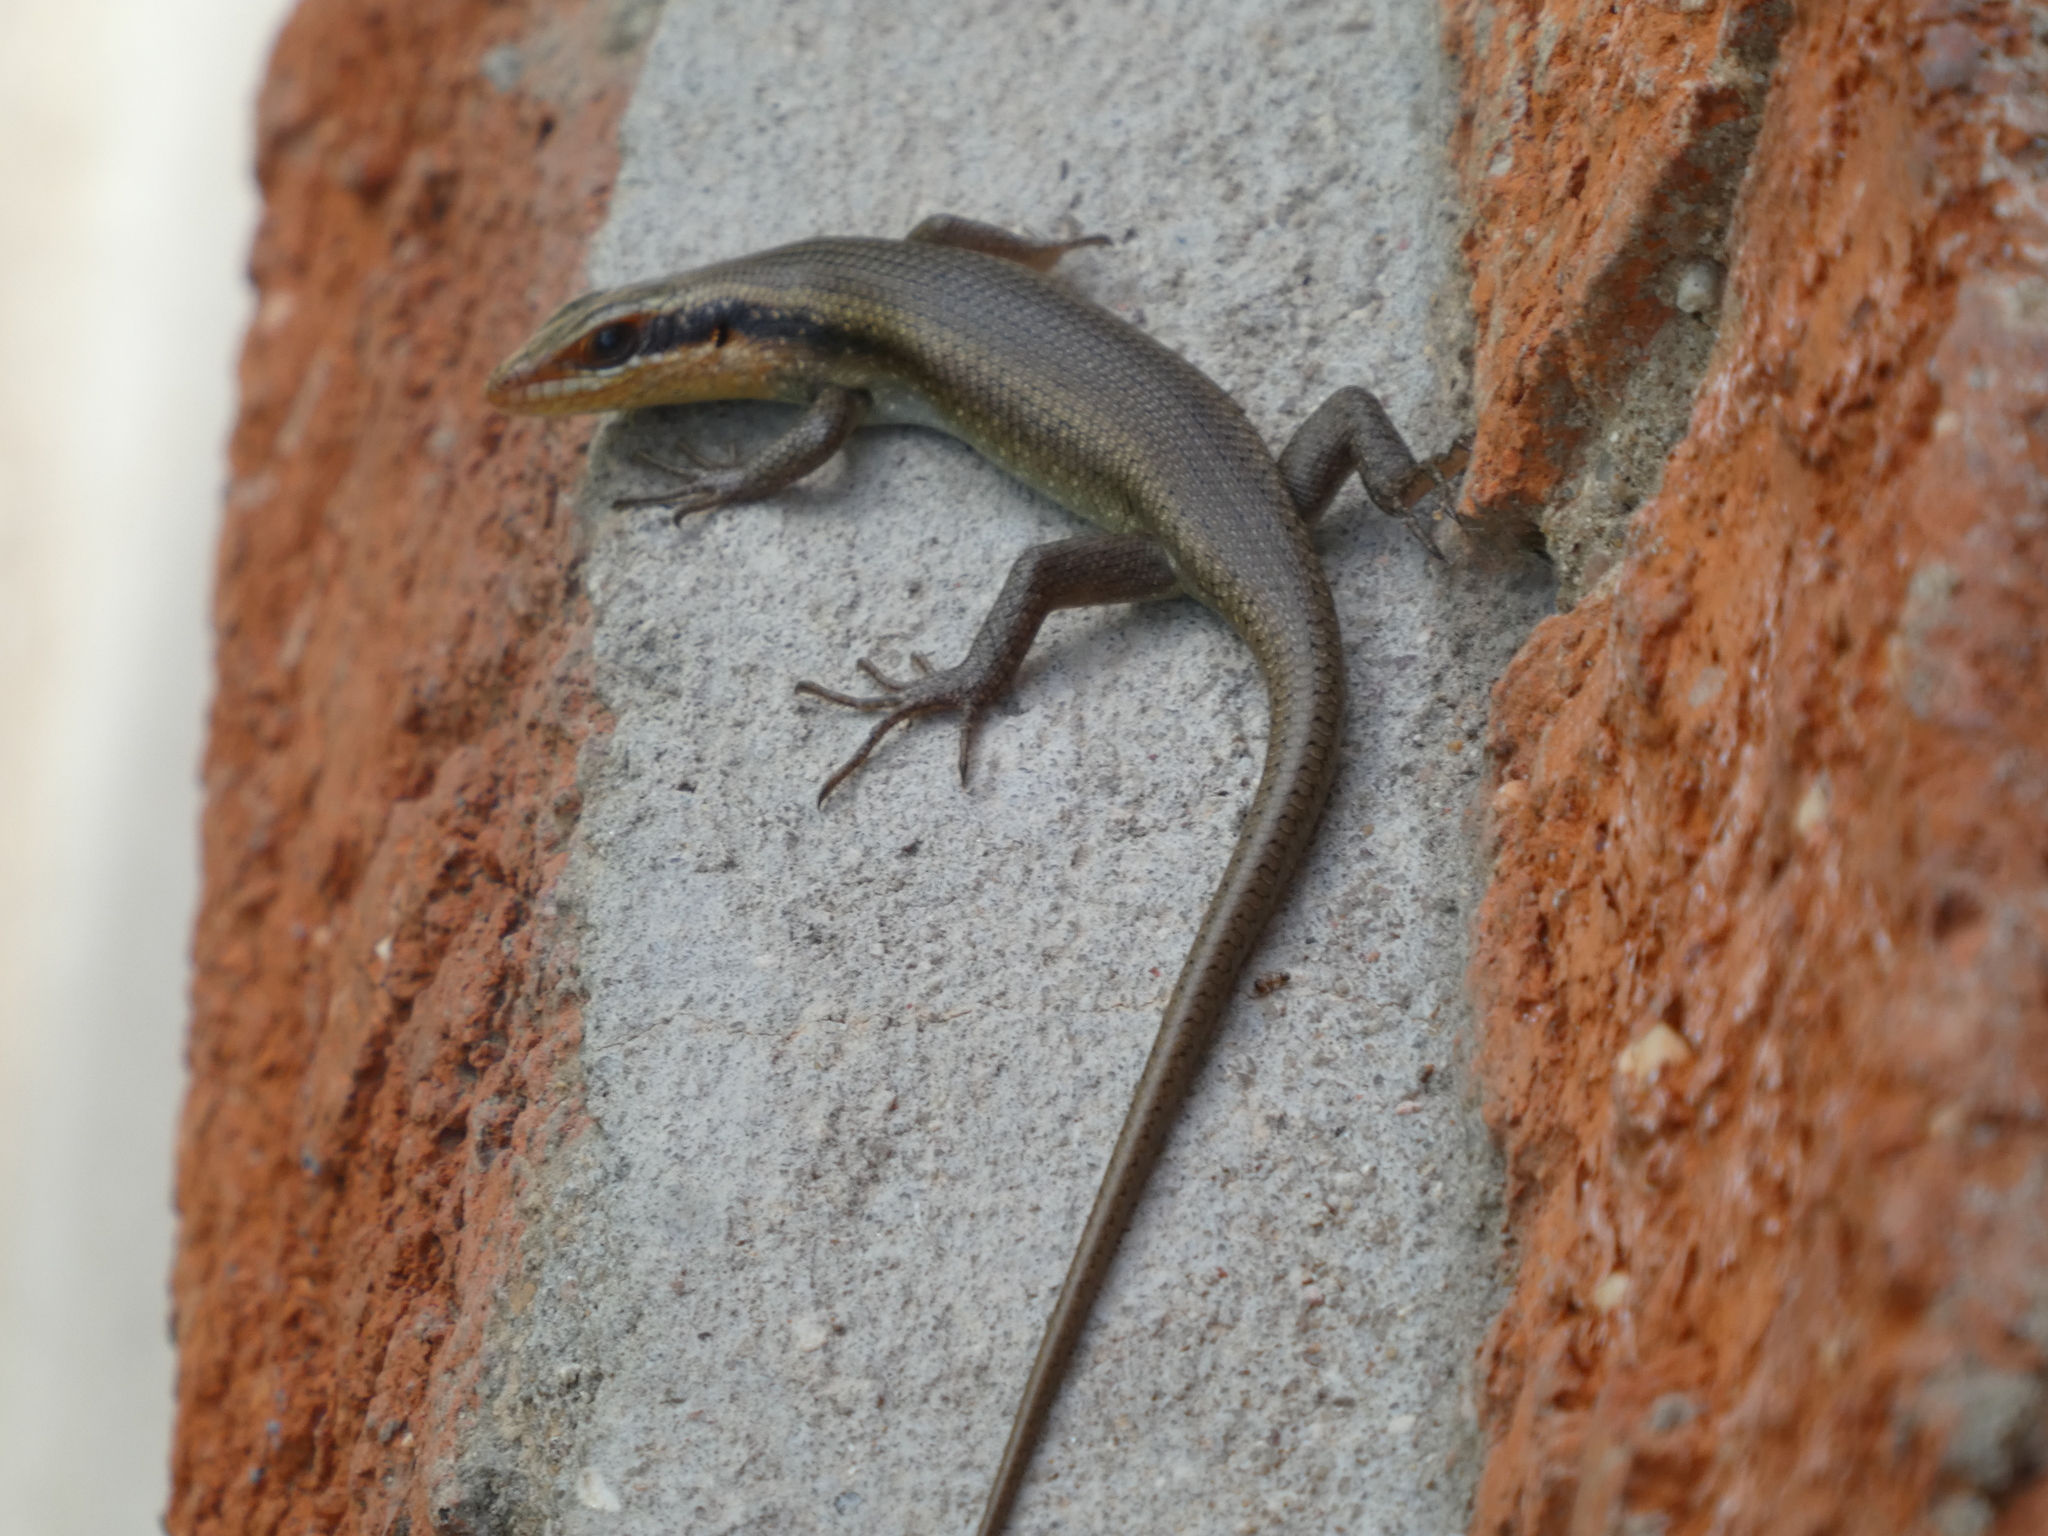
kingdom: Animalia
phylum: Chordata
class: Squamata
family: Scincidae
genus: Trachylepis
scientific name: Trachylepis wahlbergii
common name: Wahlberg’s striped skink
